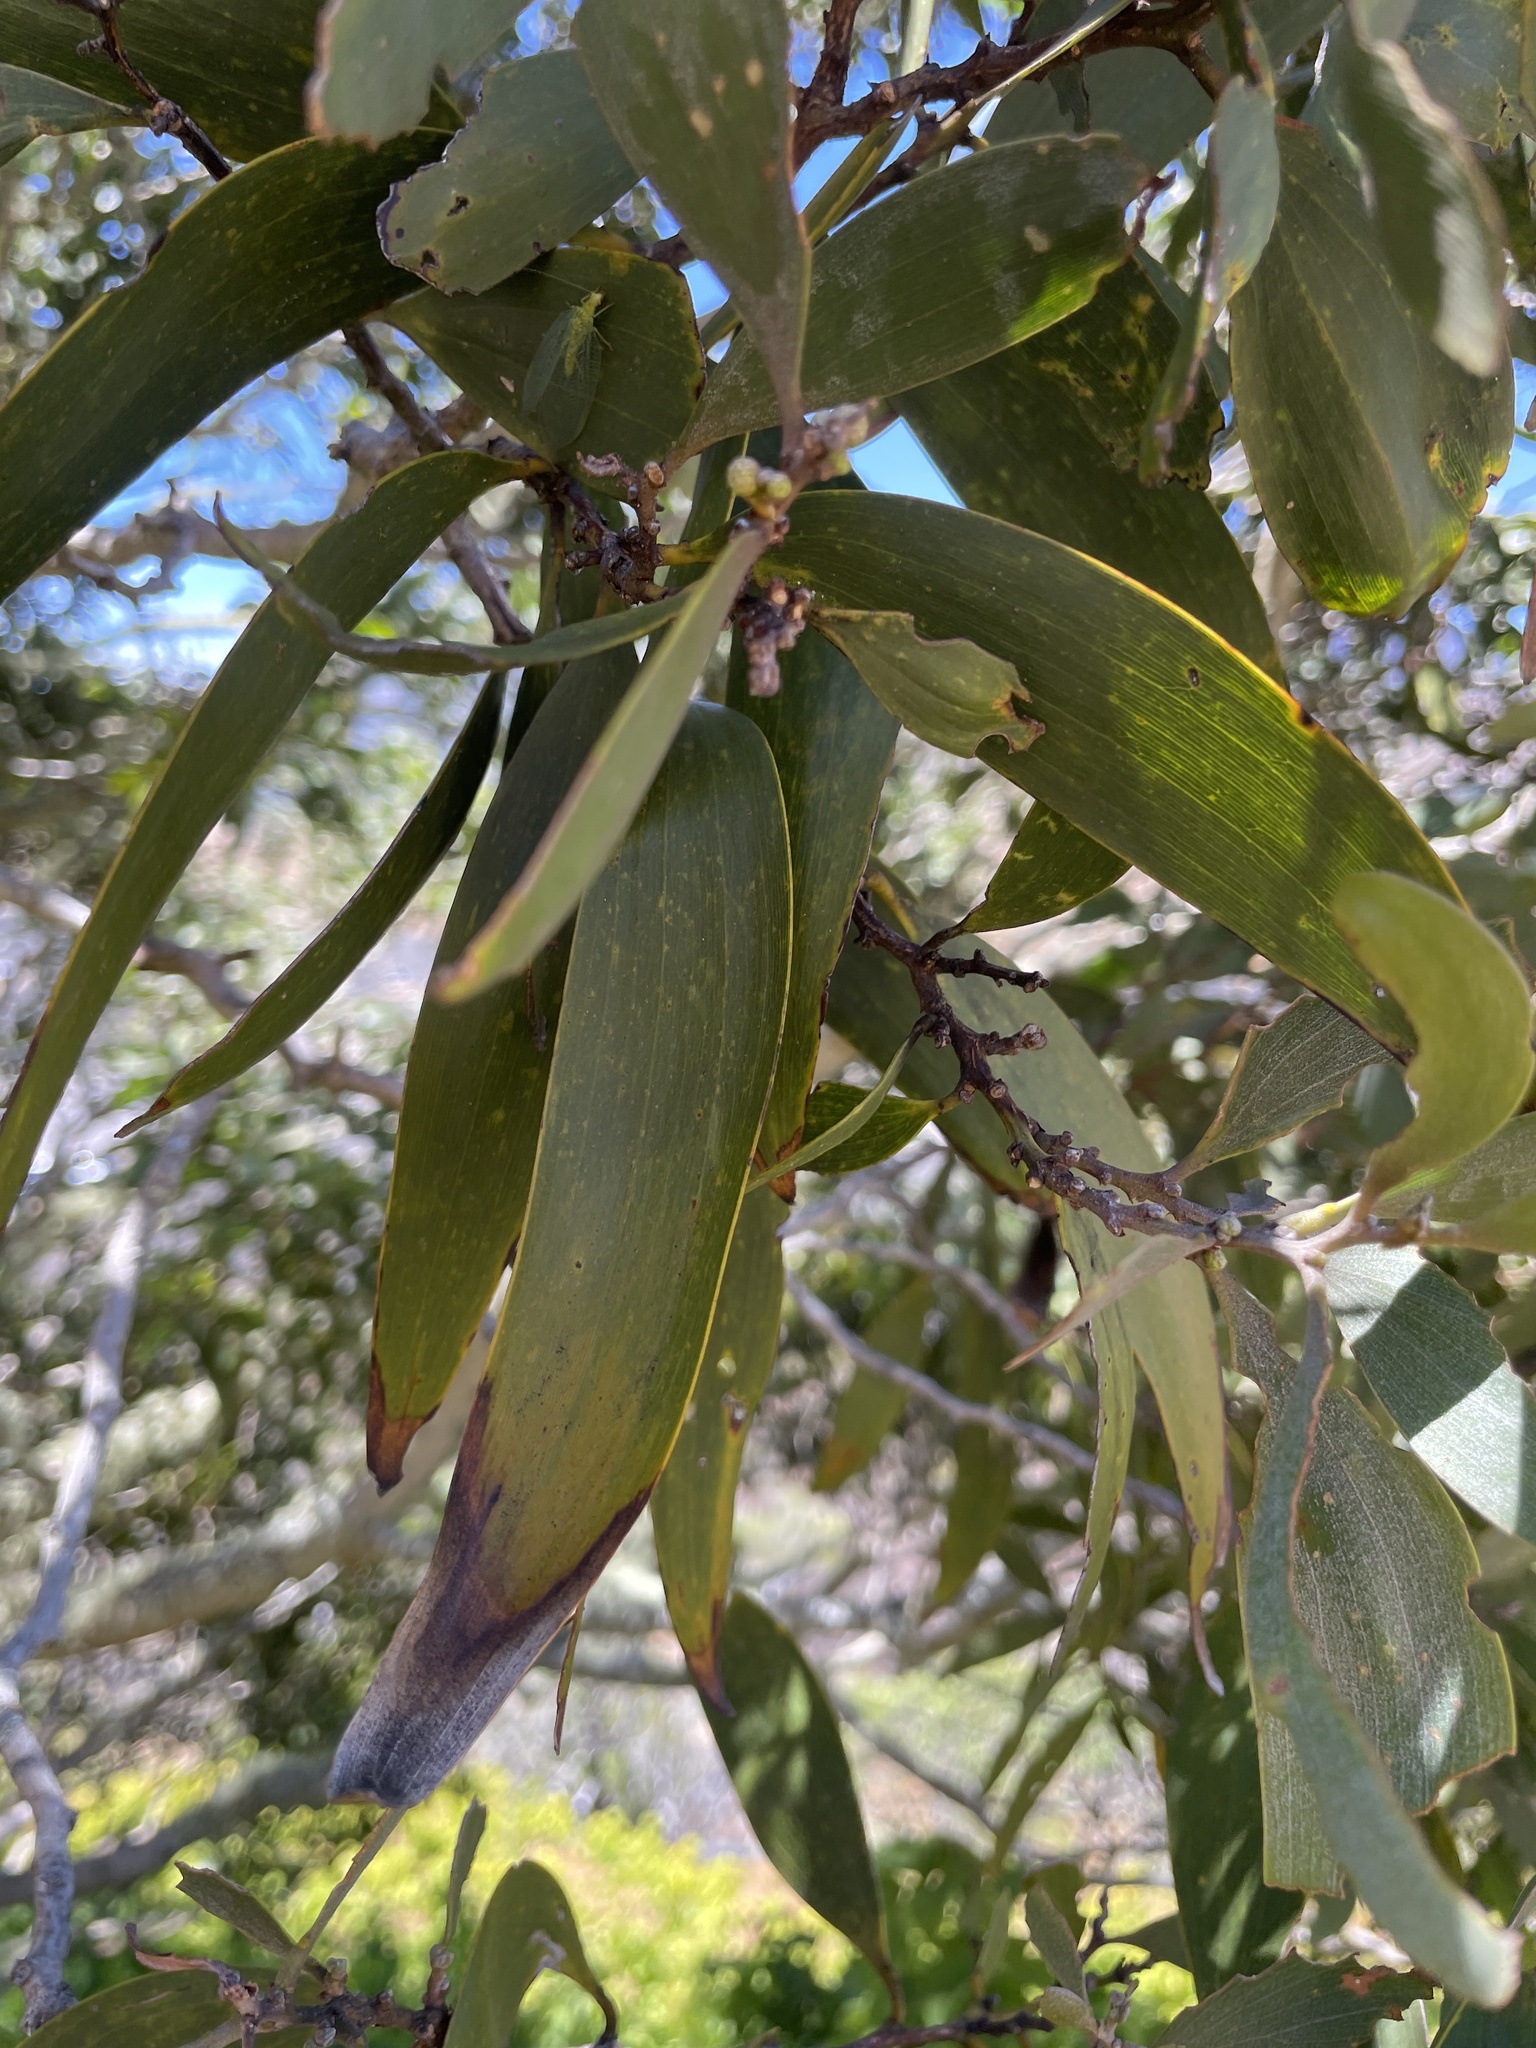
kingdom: Plantae
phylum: Tracheophyta
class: Magnoliopsida
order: Fabales
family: Fabaceae
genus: Acacia
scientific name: Acacia koa
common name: Gray koa
